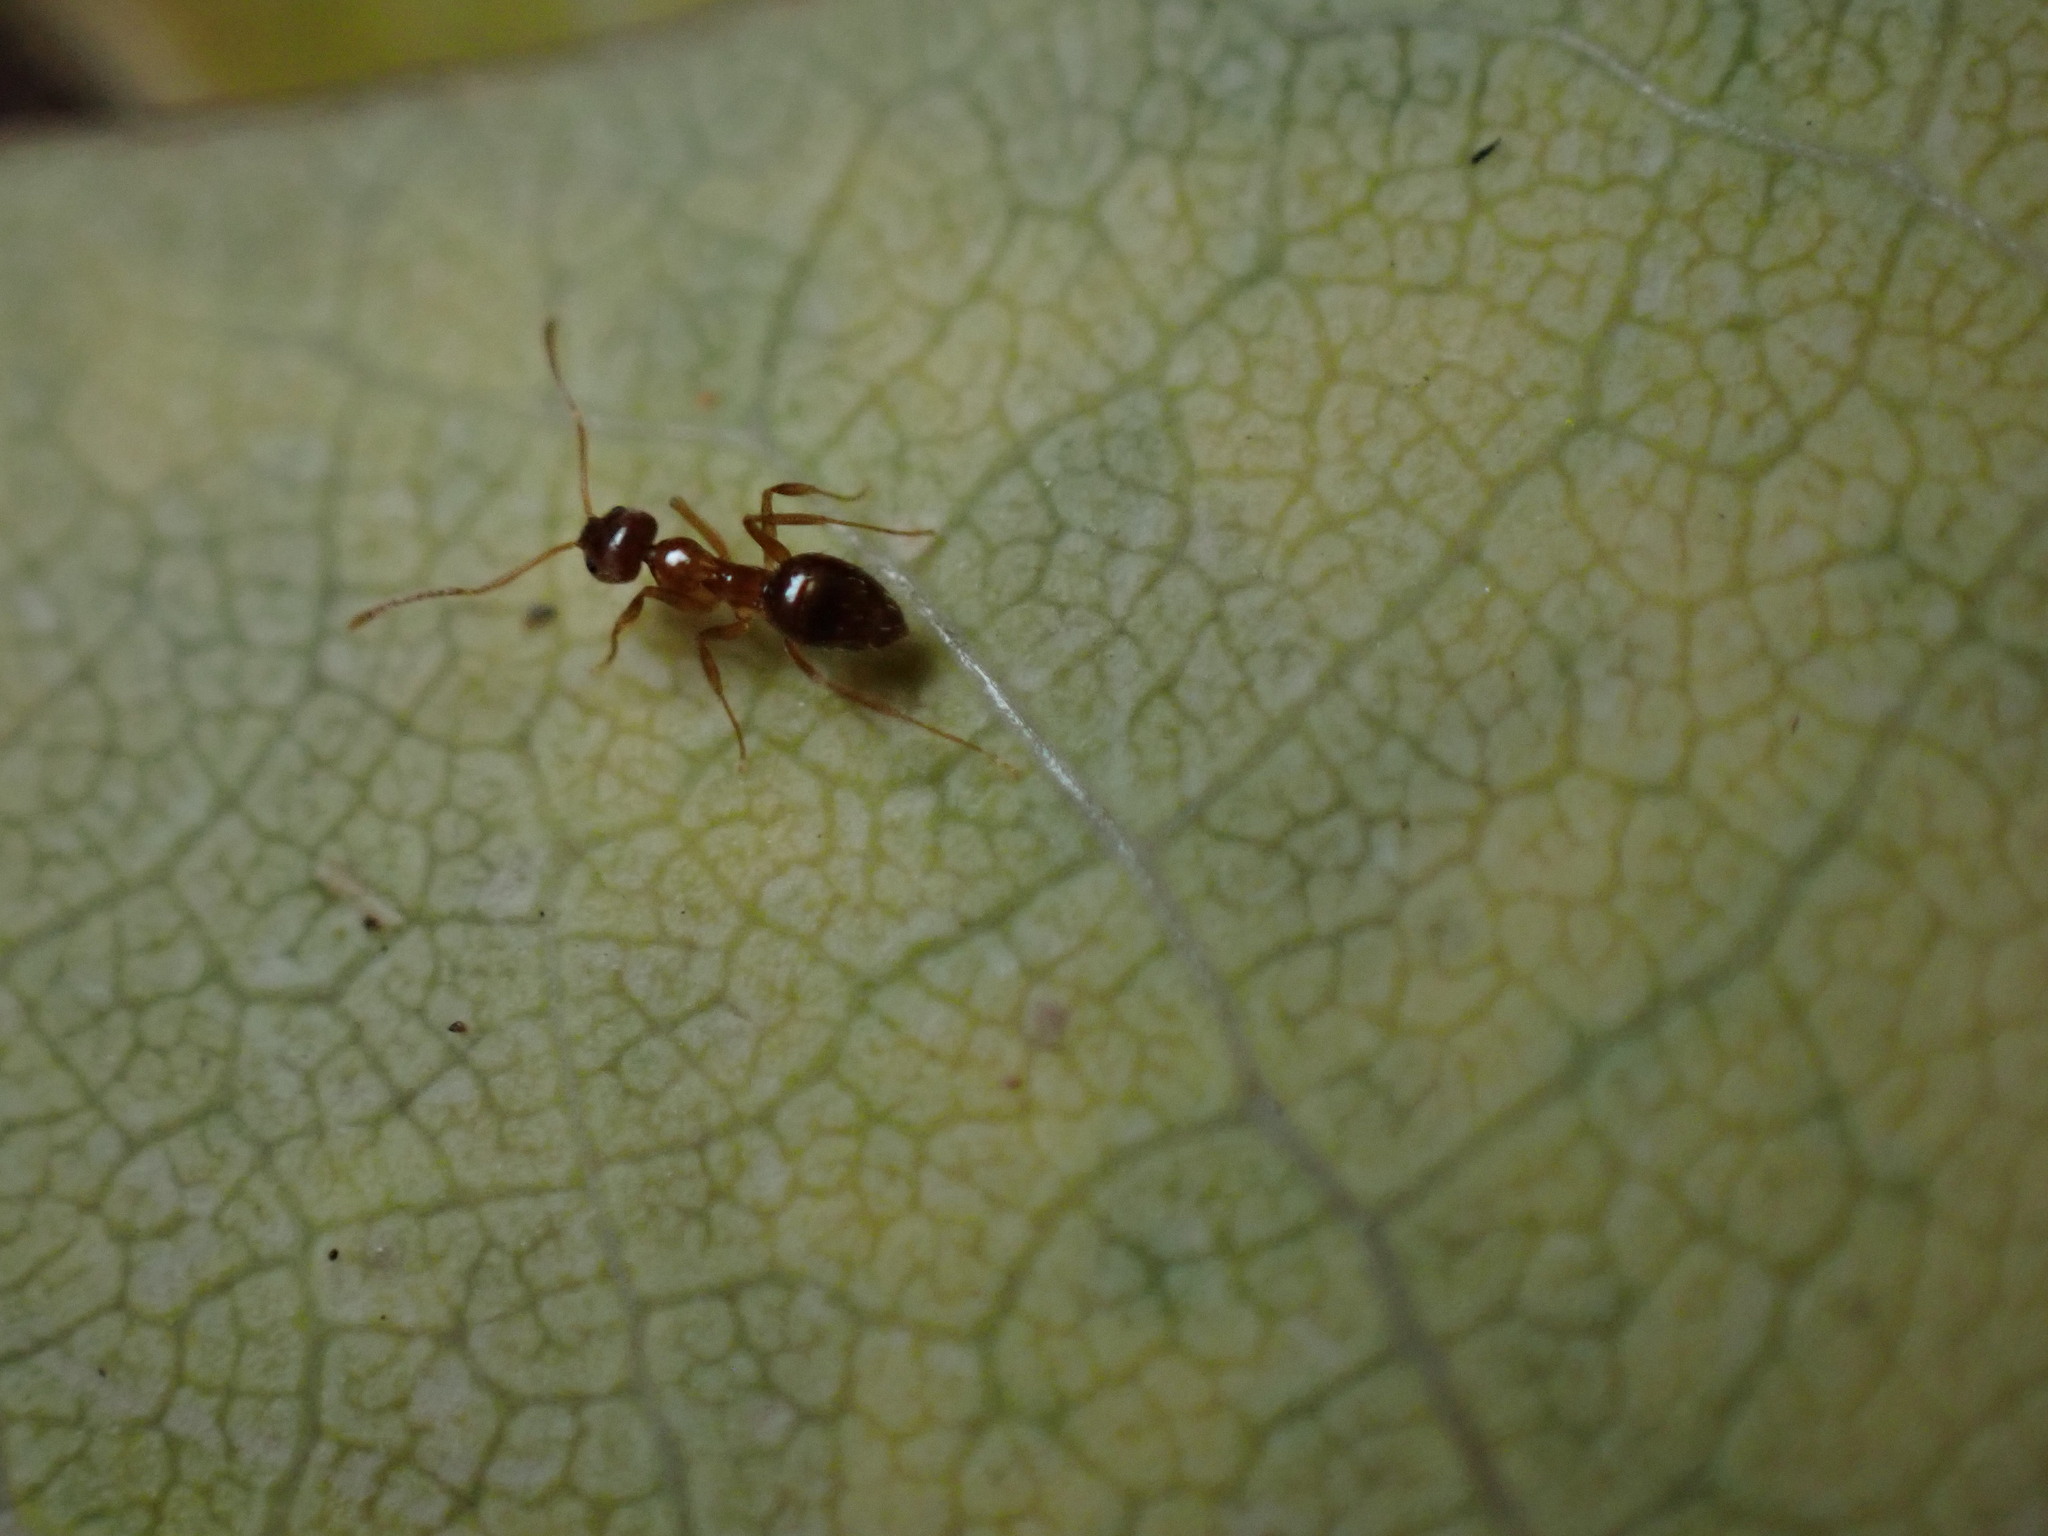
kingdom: Animalia
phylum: Arthropoda
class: Insecta
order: Hymenoptera
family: Formicidae
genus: Paratrechina
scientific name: Paratrechina flavipes
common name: Eastern asian formicine ant
